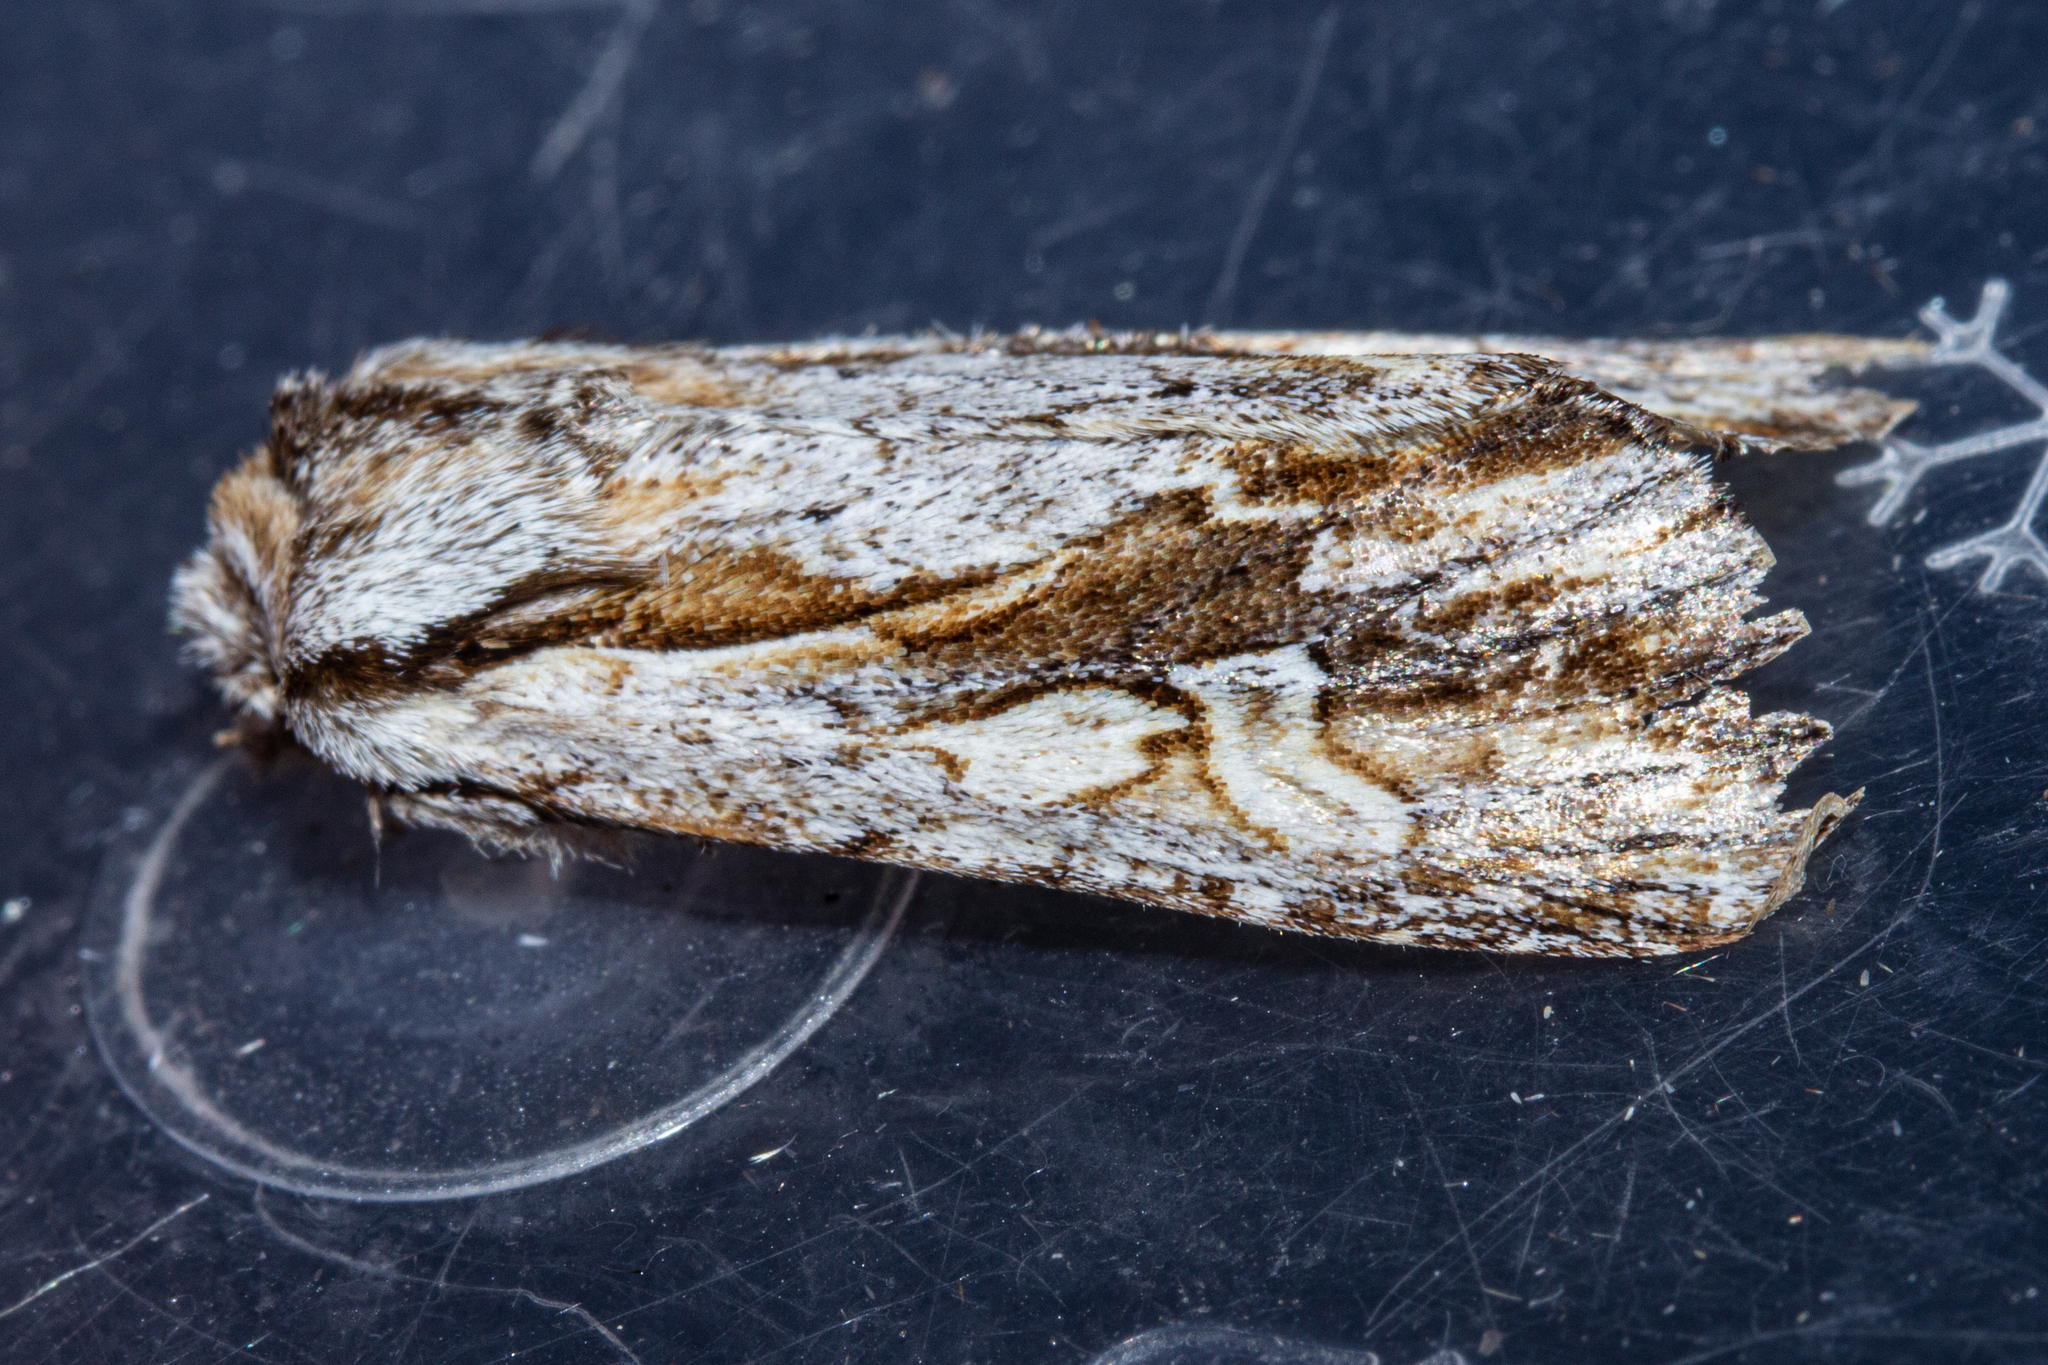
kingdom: Animalia
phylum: Arthropoda
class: Insecta
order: Lepidoptera
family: Noctuidae
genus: Ichneutica
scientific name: Ichneutica
